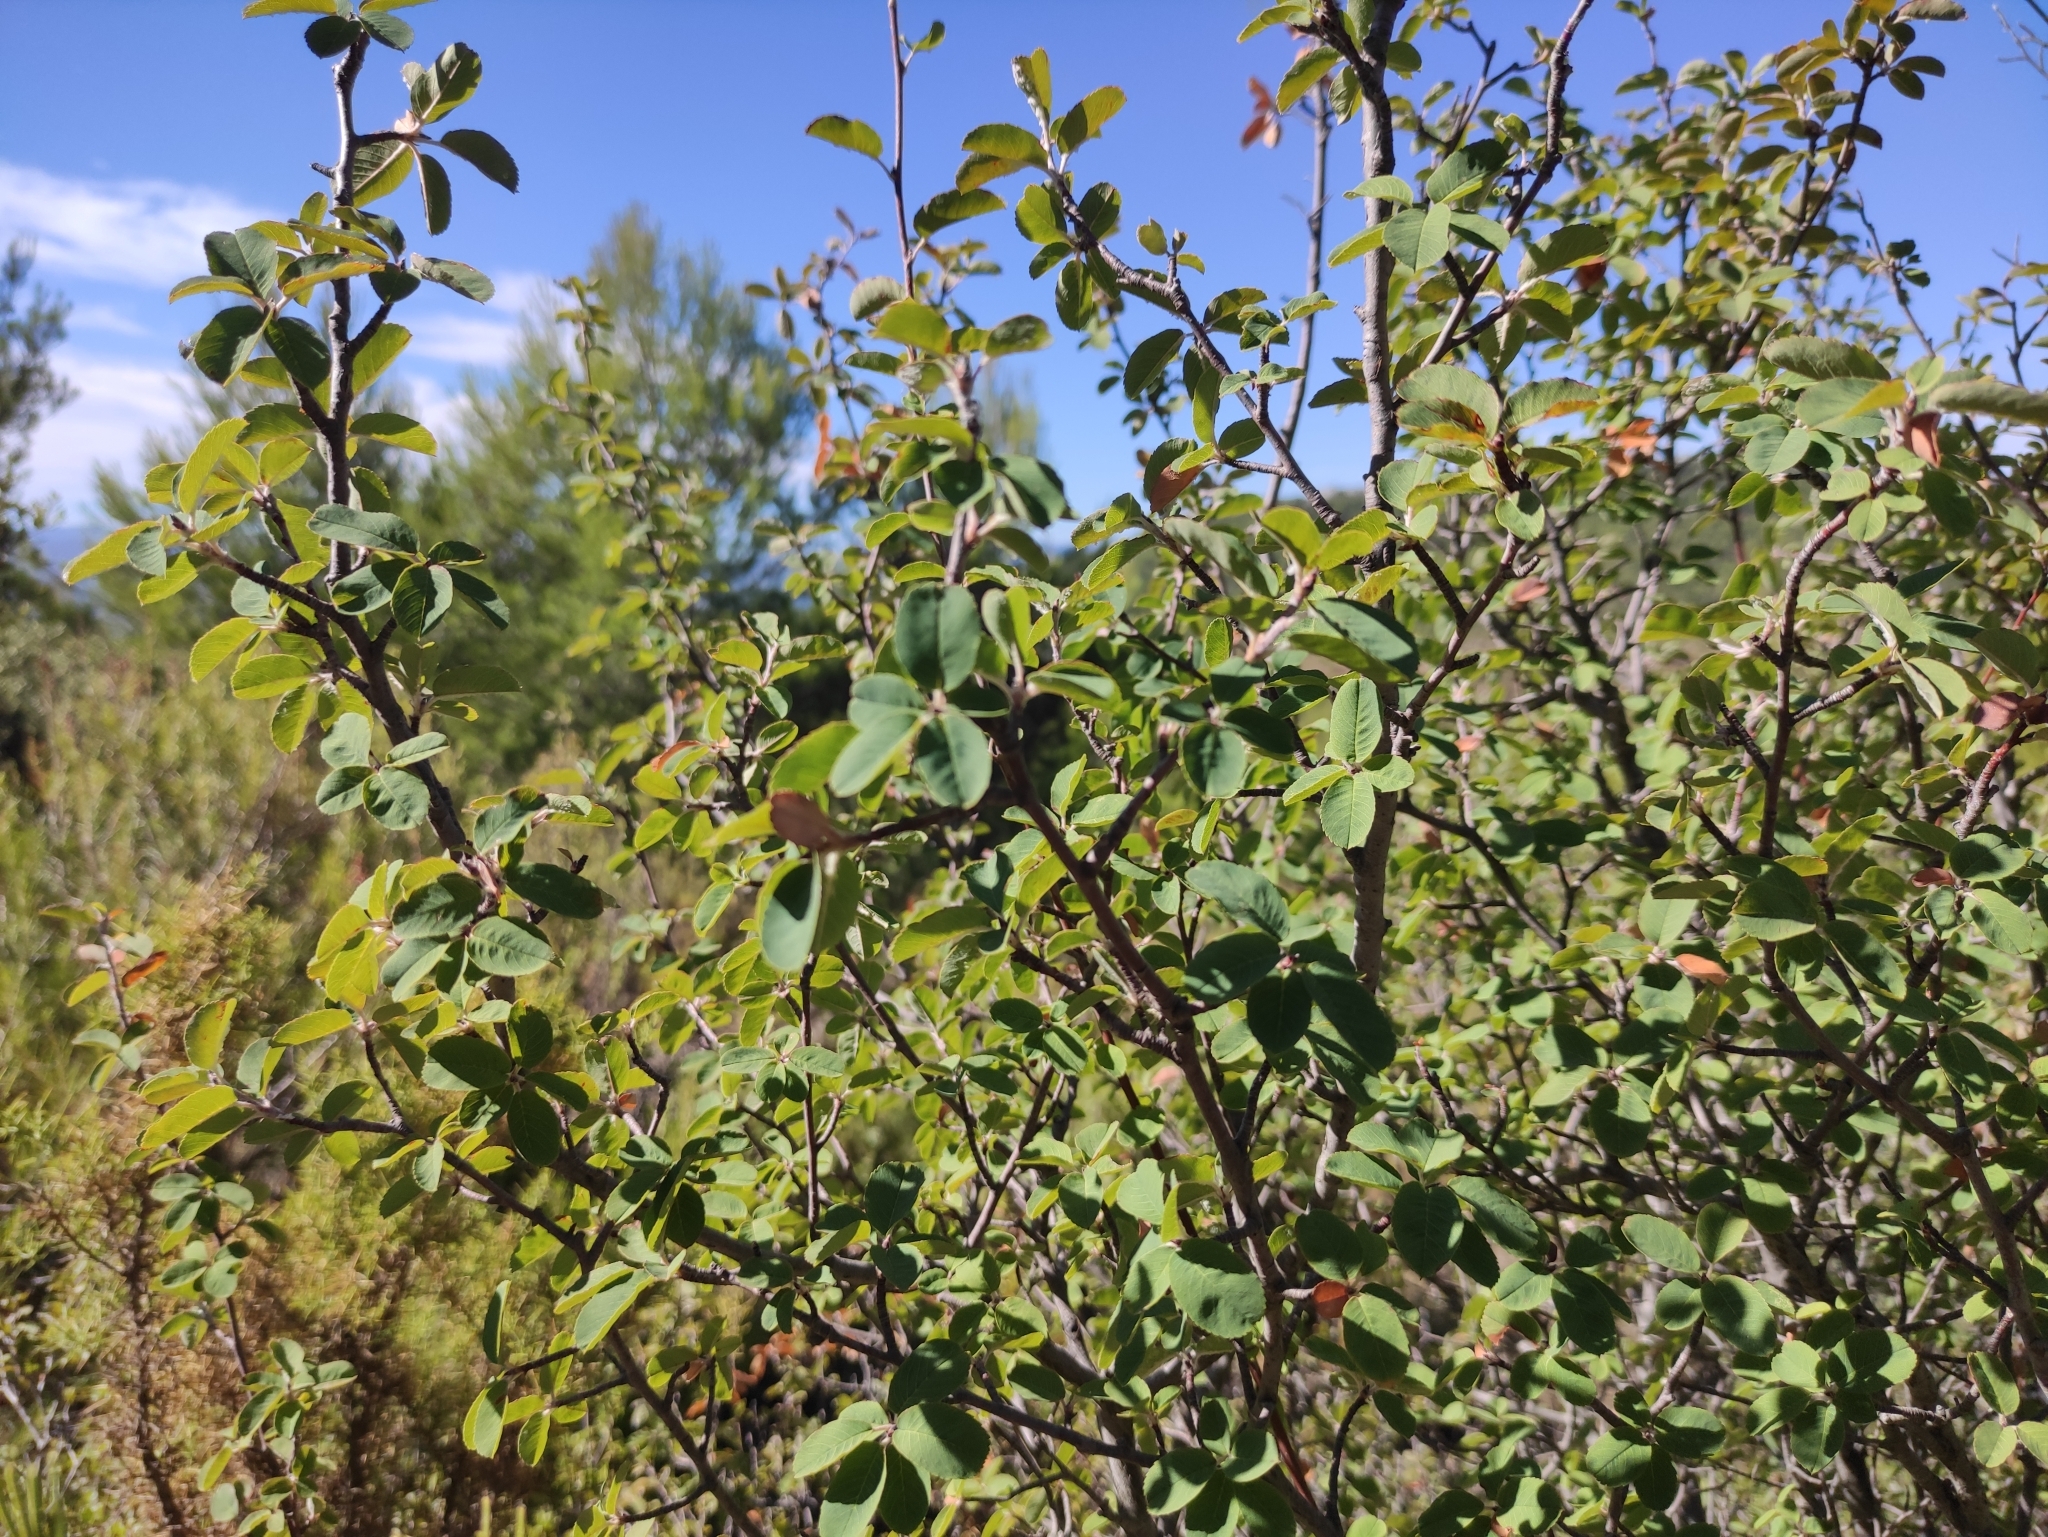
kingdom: Plantae
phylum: Tracheophyta
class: Magnoliopsida
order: Rosales
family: Rosaceae
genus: Amelanchier
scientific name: Amelanchier ovalis
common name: Serviceberry
